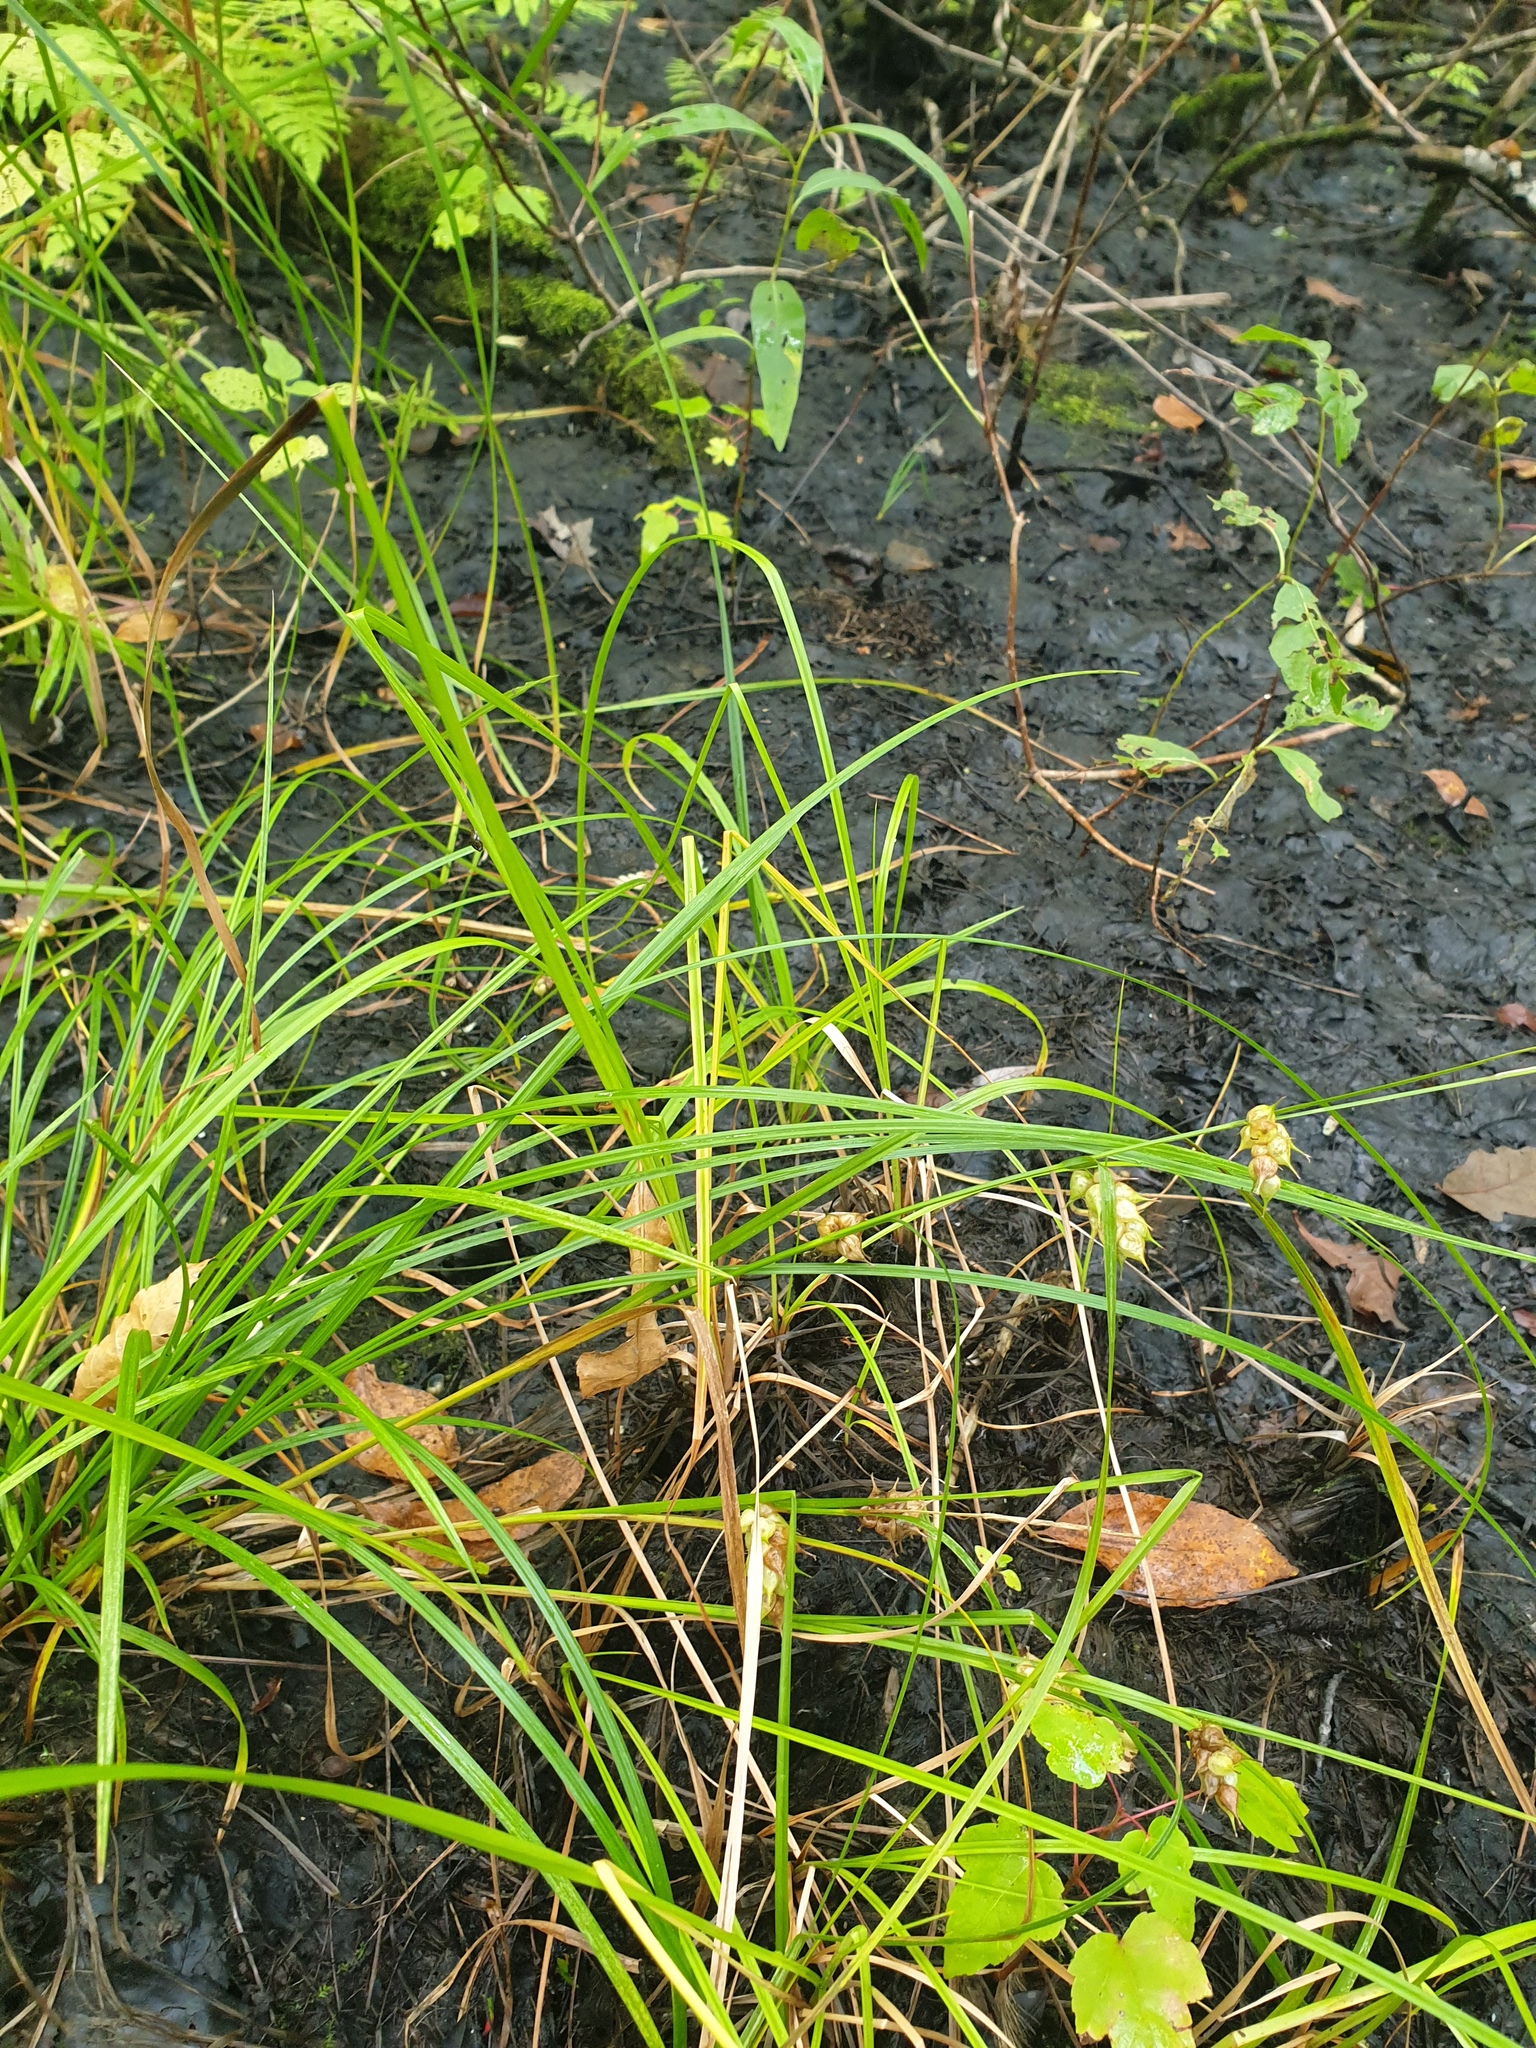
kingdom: Plantae
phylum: Tracheophyta
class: Liliopsida
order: Poales
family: Cyperaceae
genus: Carex
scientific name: Carex tuckermanii
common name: Tuckerman's sedge
